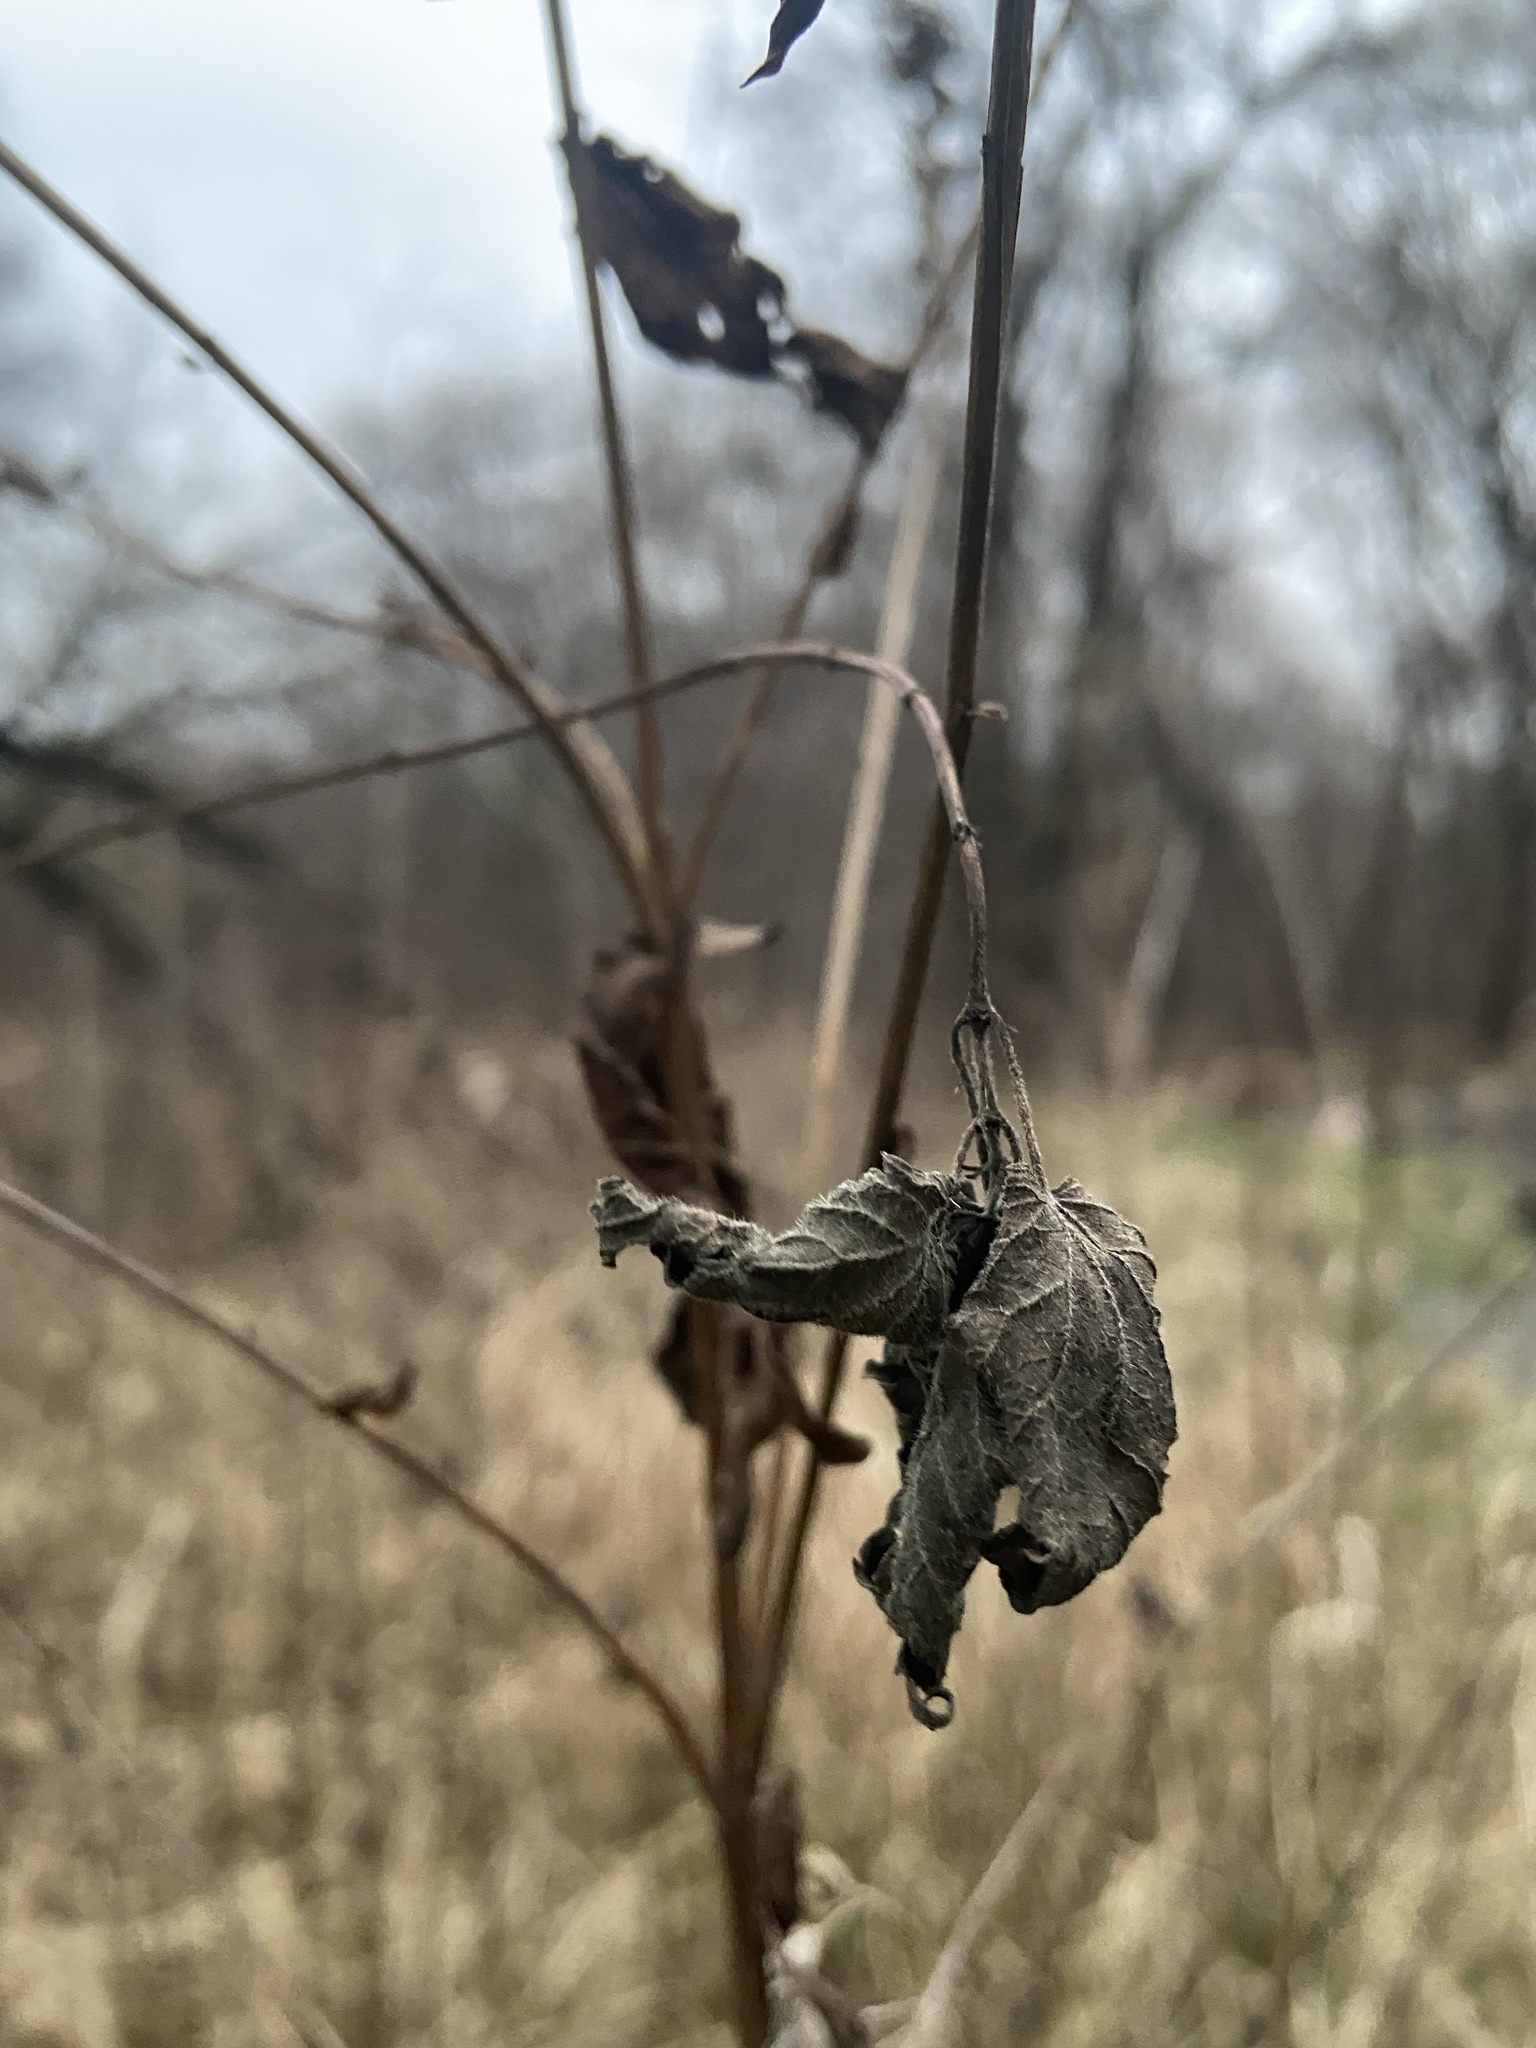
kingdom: Plantae
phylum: Tracheophyta
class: Magnoliopsida
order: Myrtales
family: Lythraceae
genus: Lythrum
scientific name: Lythrum salicaria
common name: Purple loosestrife
